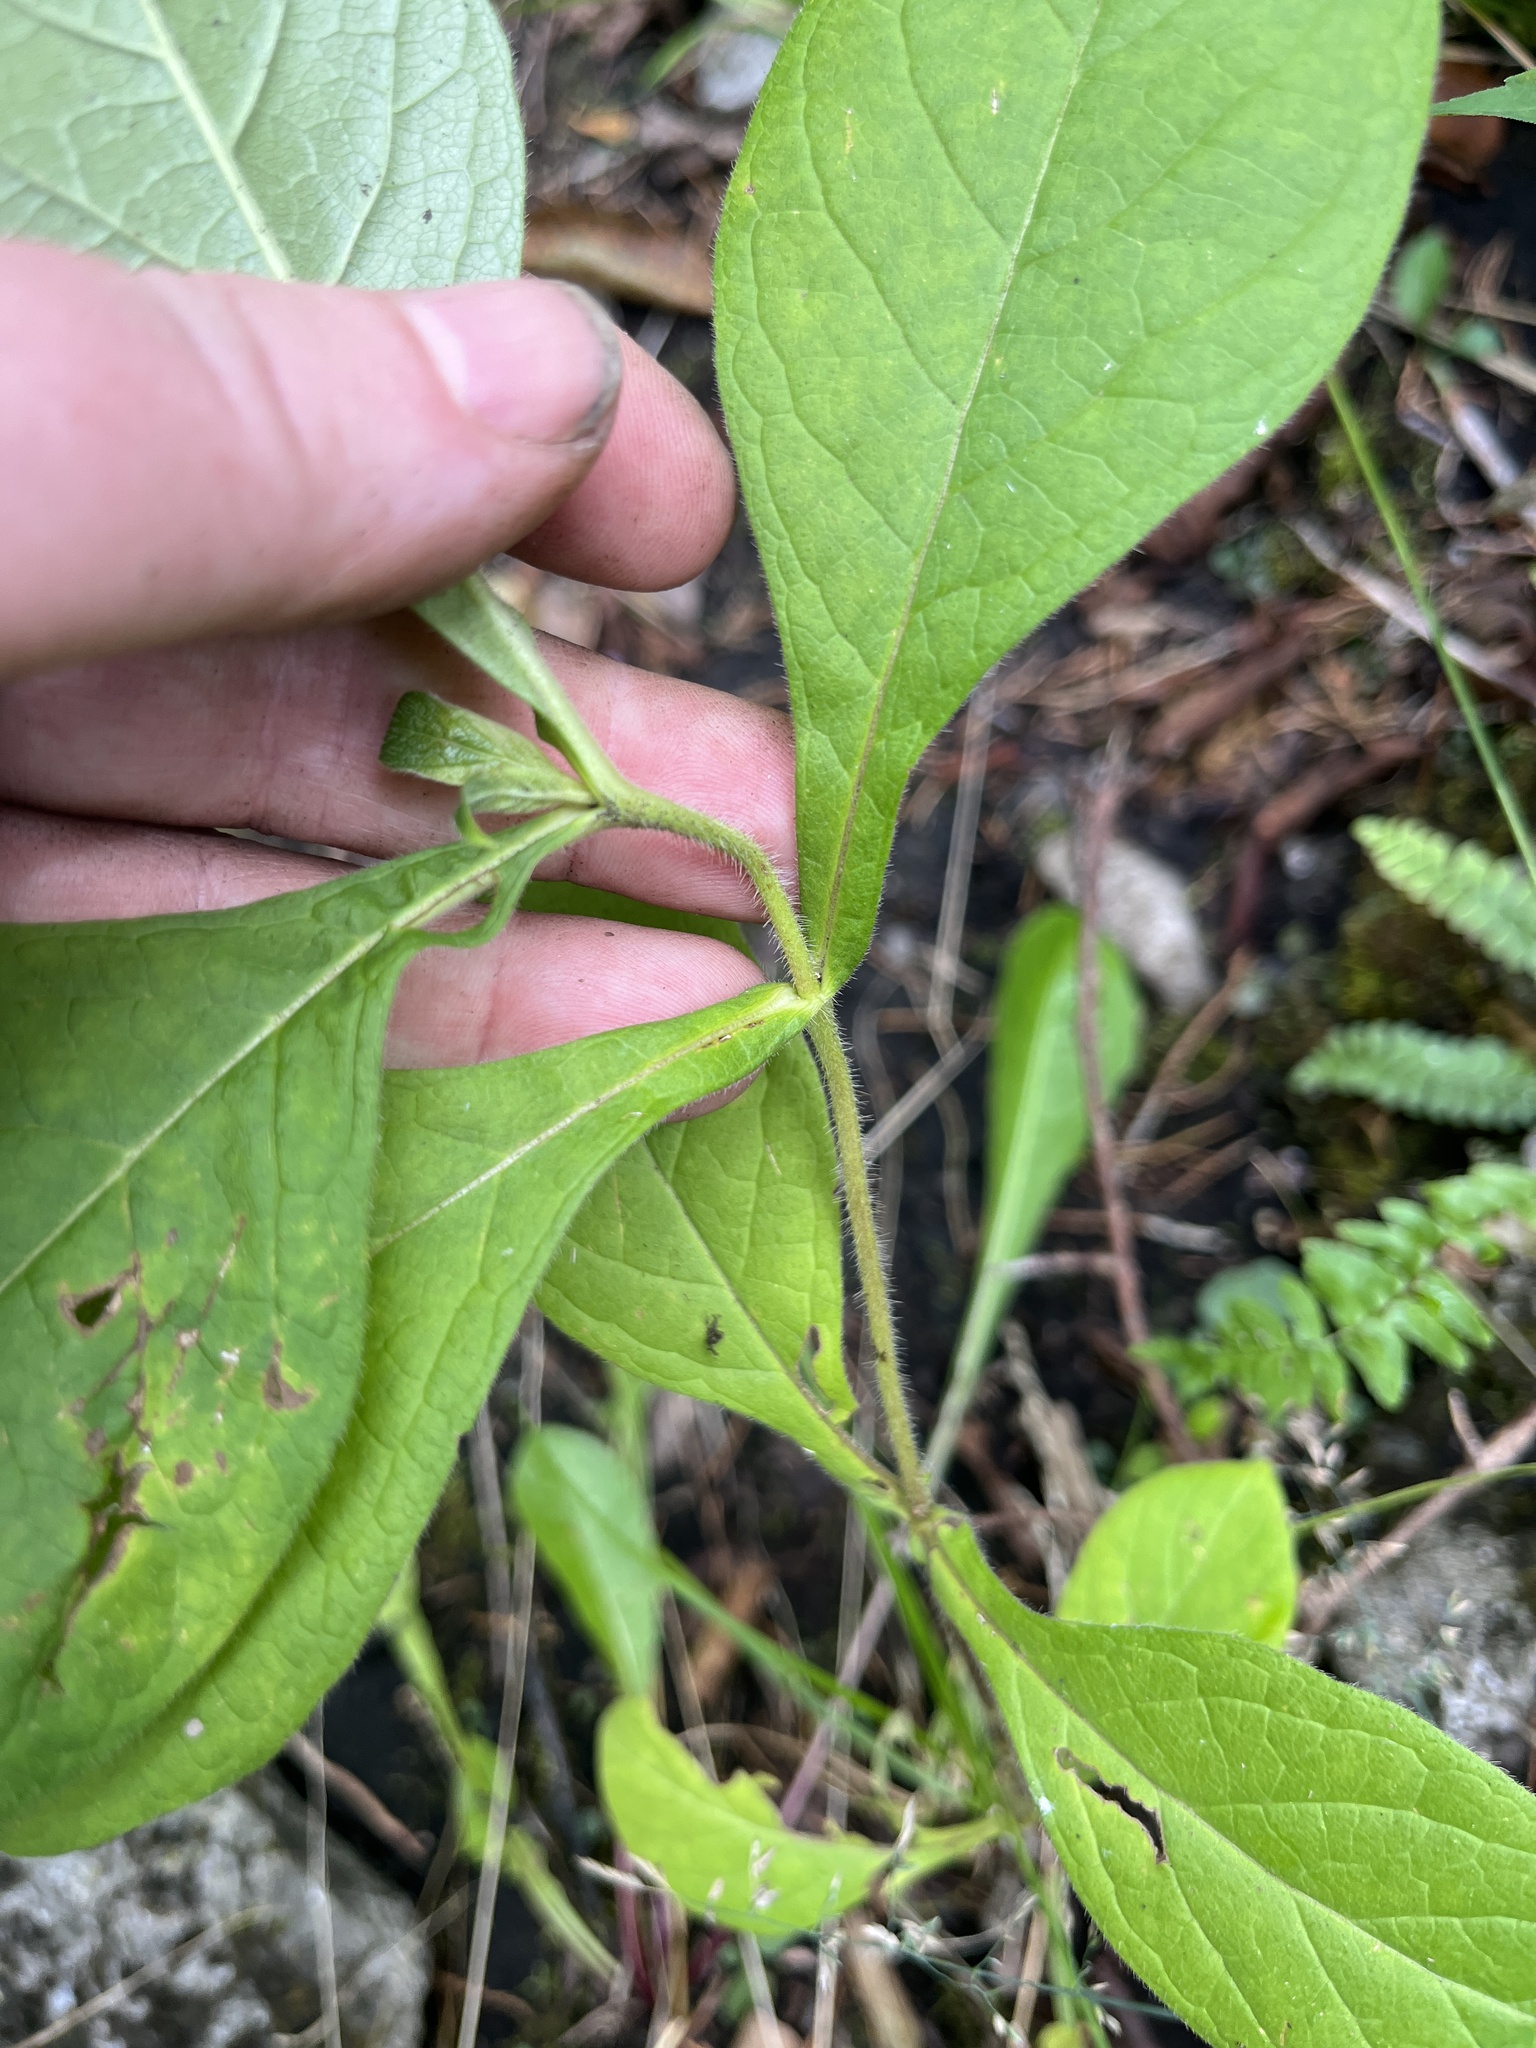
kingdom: Plantae
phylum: Tracheophyta
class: Magnoliopsida
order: Dipsacales
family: Caprifoliaceae
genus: Triosteum
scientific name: Triosteum aurantiacum
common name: Coffee tinker's-weed
